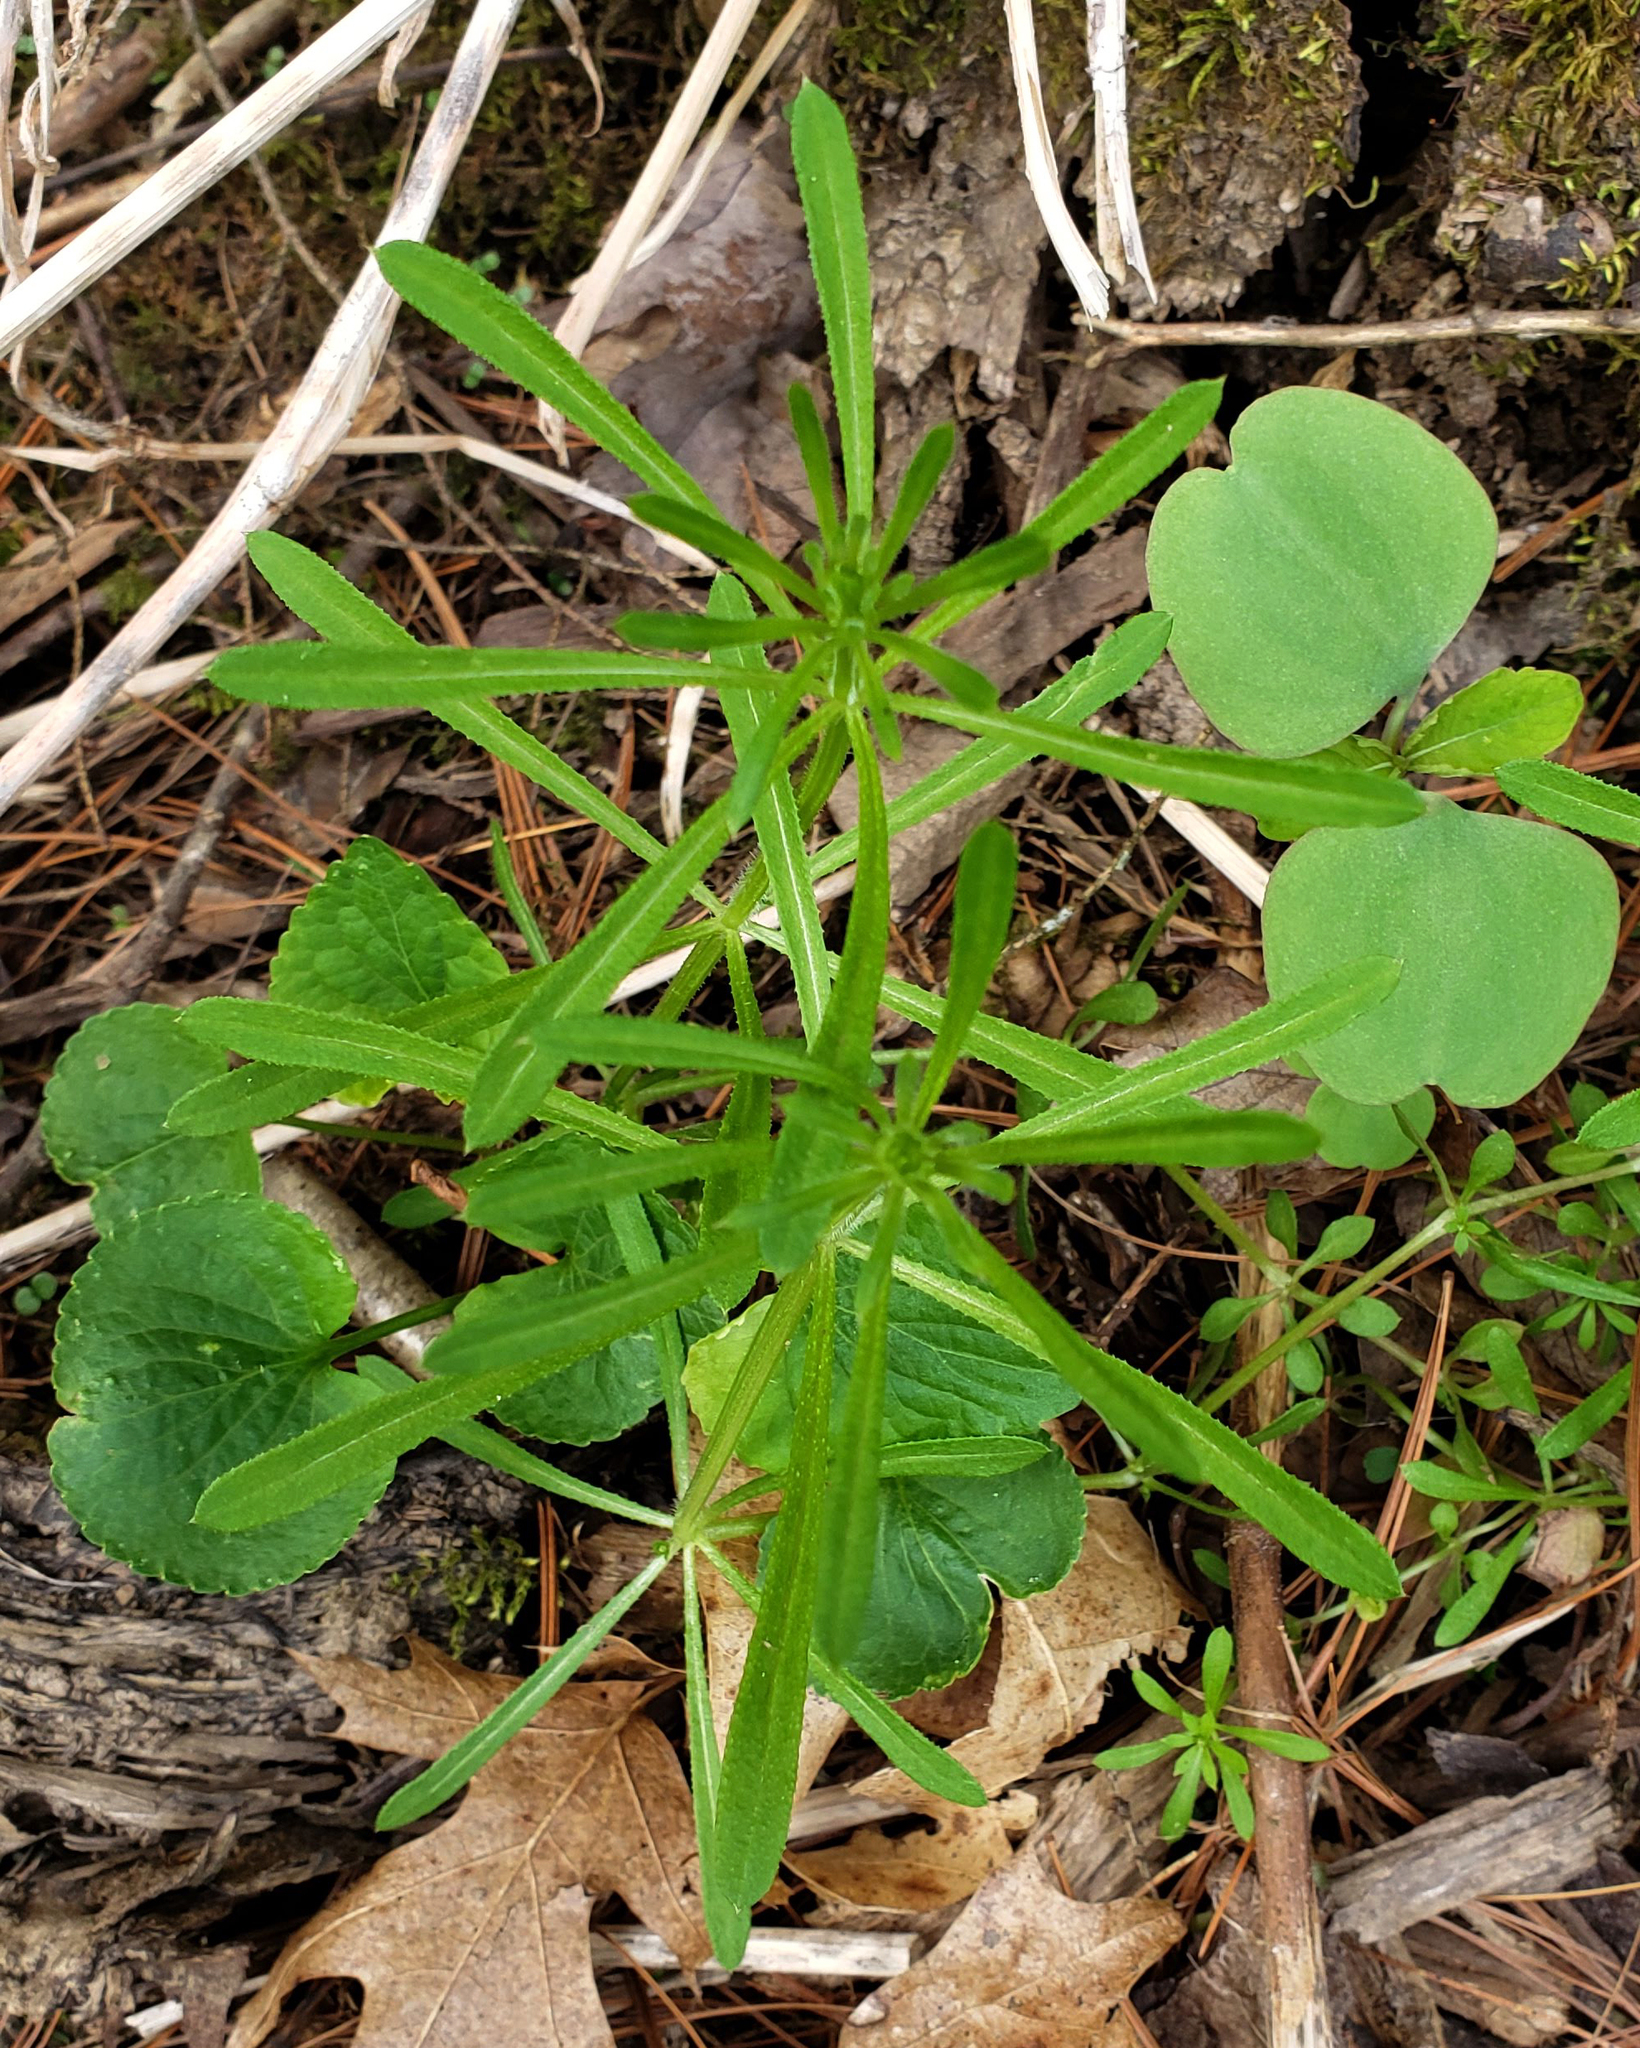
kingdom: Plantae
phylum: Tracheophyta
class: Magnoliopsida
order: Gentianales
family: Rubiaceae
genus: Galium
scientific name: Galium aparine
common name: Cleavers
